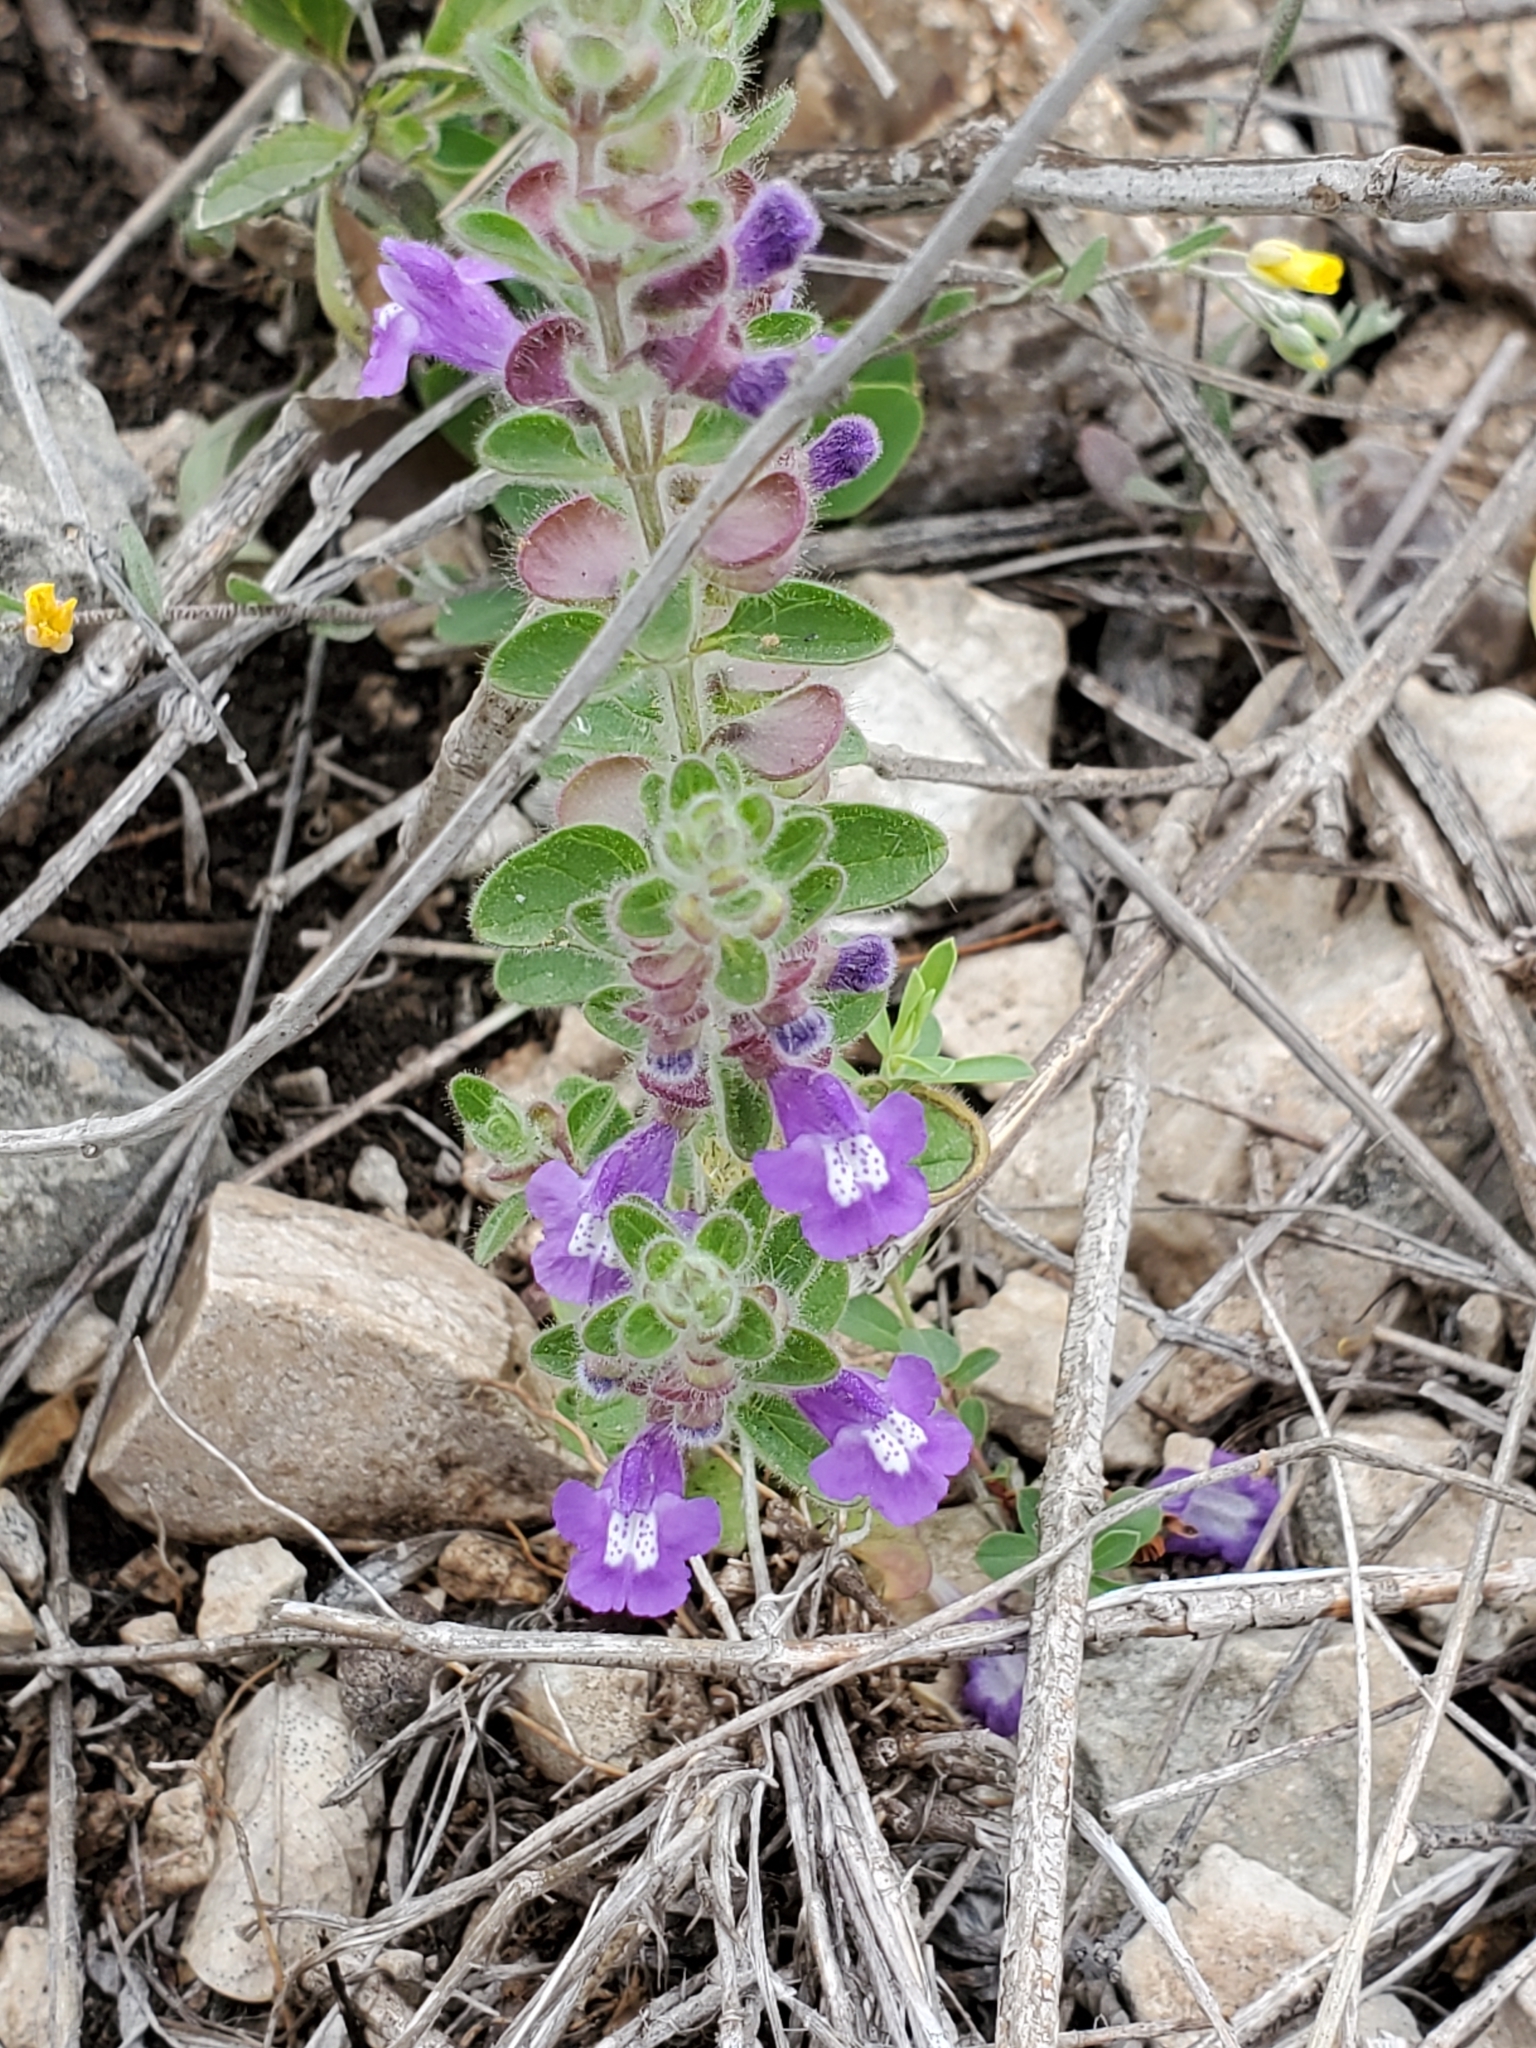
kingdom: Plantae
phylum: Tracheophyta
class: Magnoliopsida
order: Lamiales
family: Lamiaceae
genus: Scutellaria
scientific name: Scutellaria drummondii
